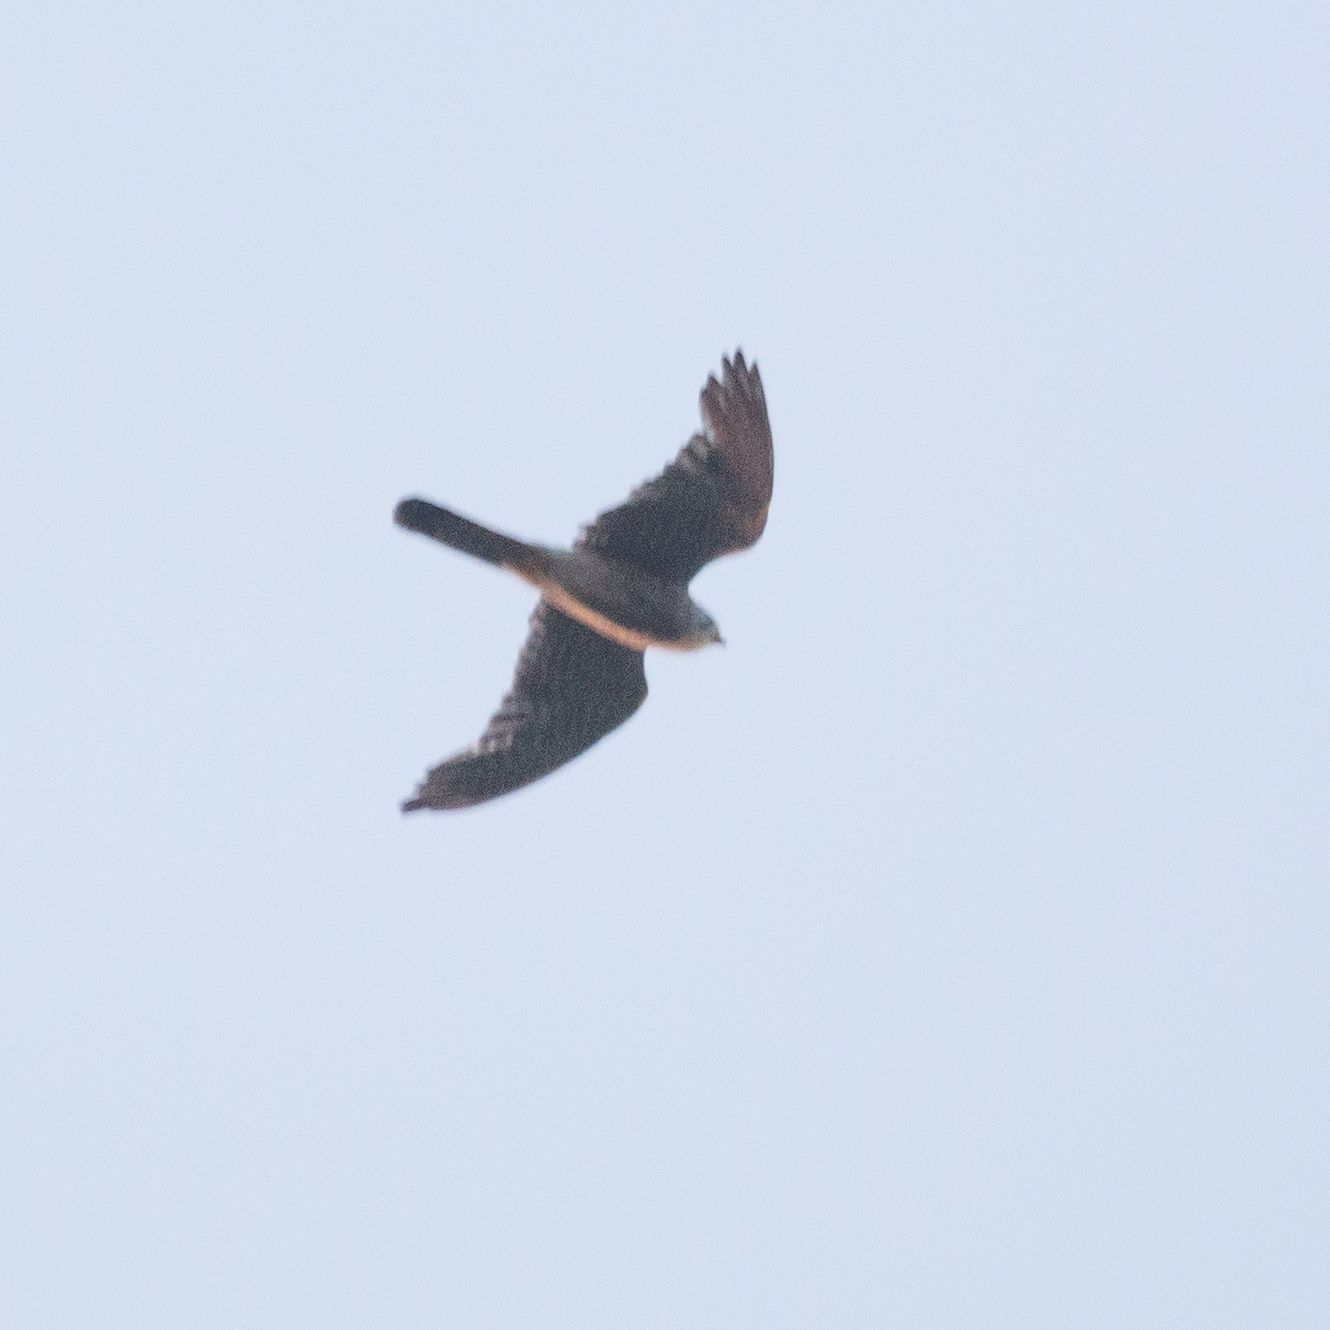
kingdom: Animalia
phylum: Chordata
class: Aves
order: Falconiformes
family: Falconidae
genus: Falco
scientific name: Falco tinnunculus
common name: Common kestrel
